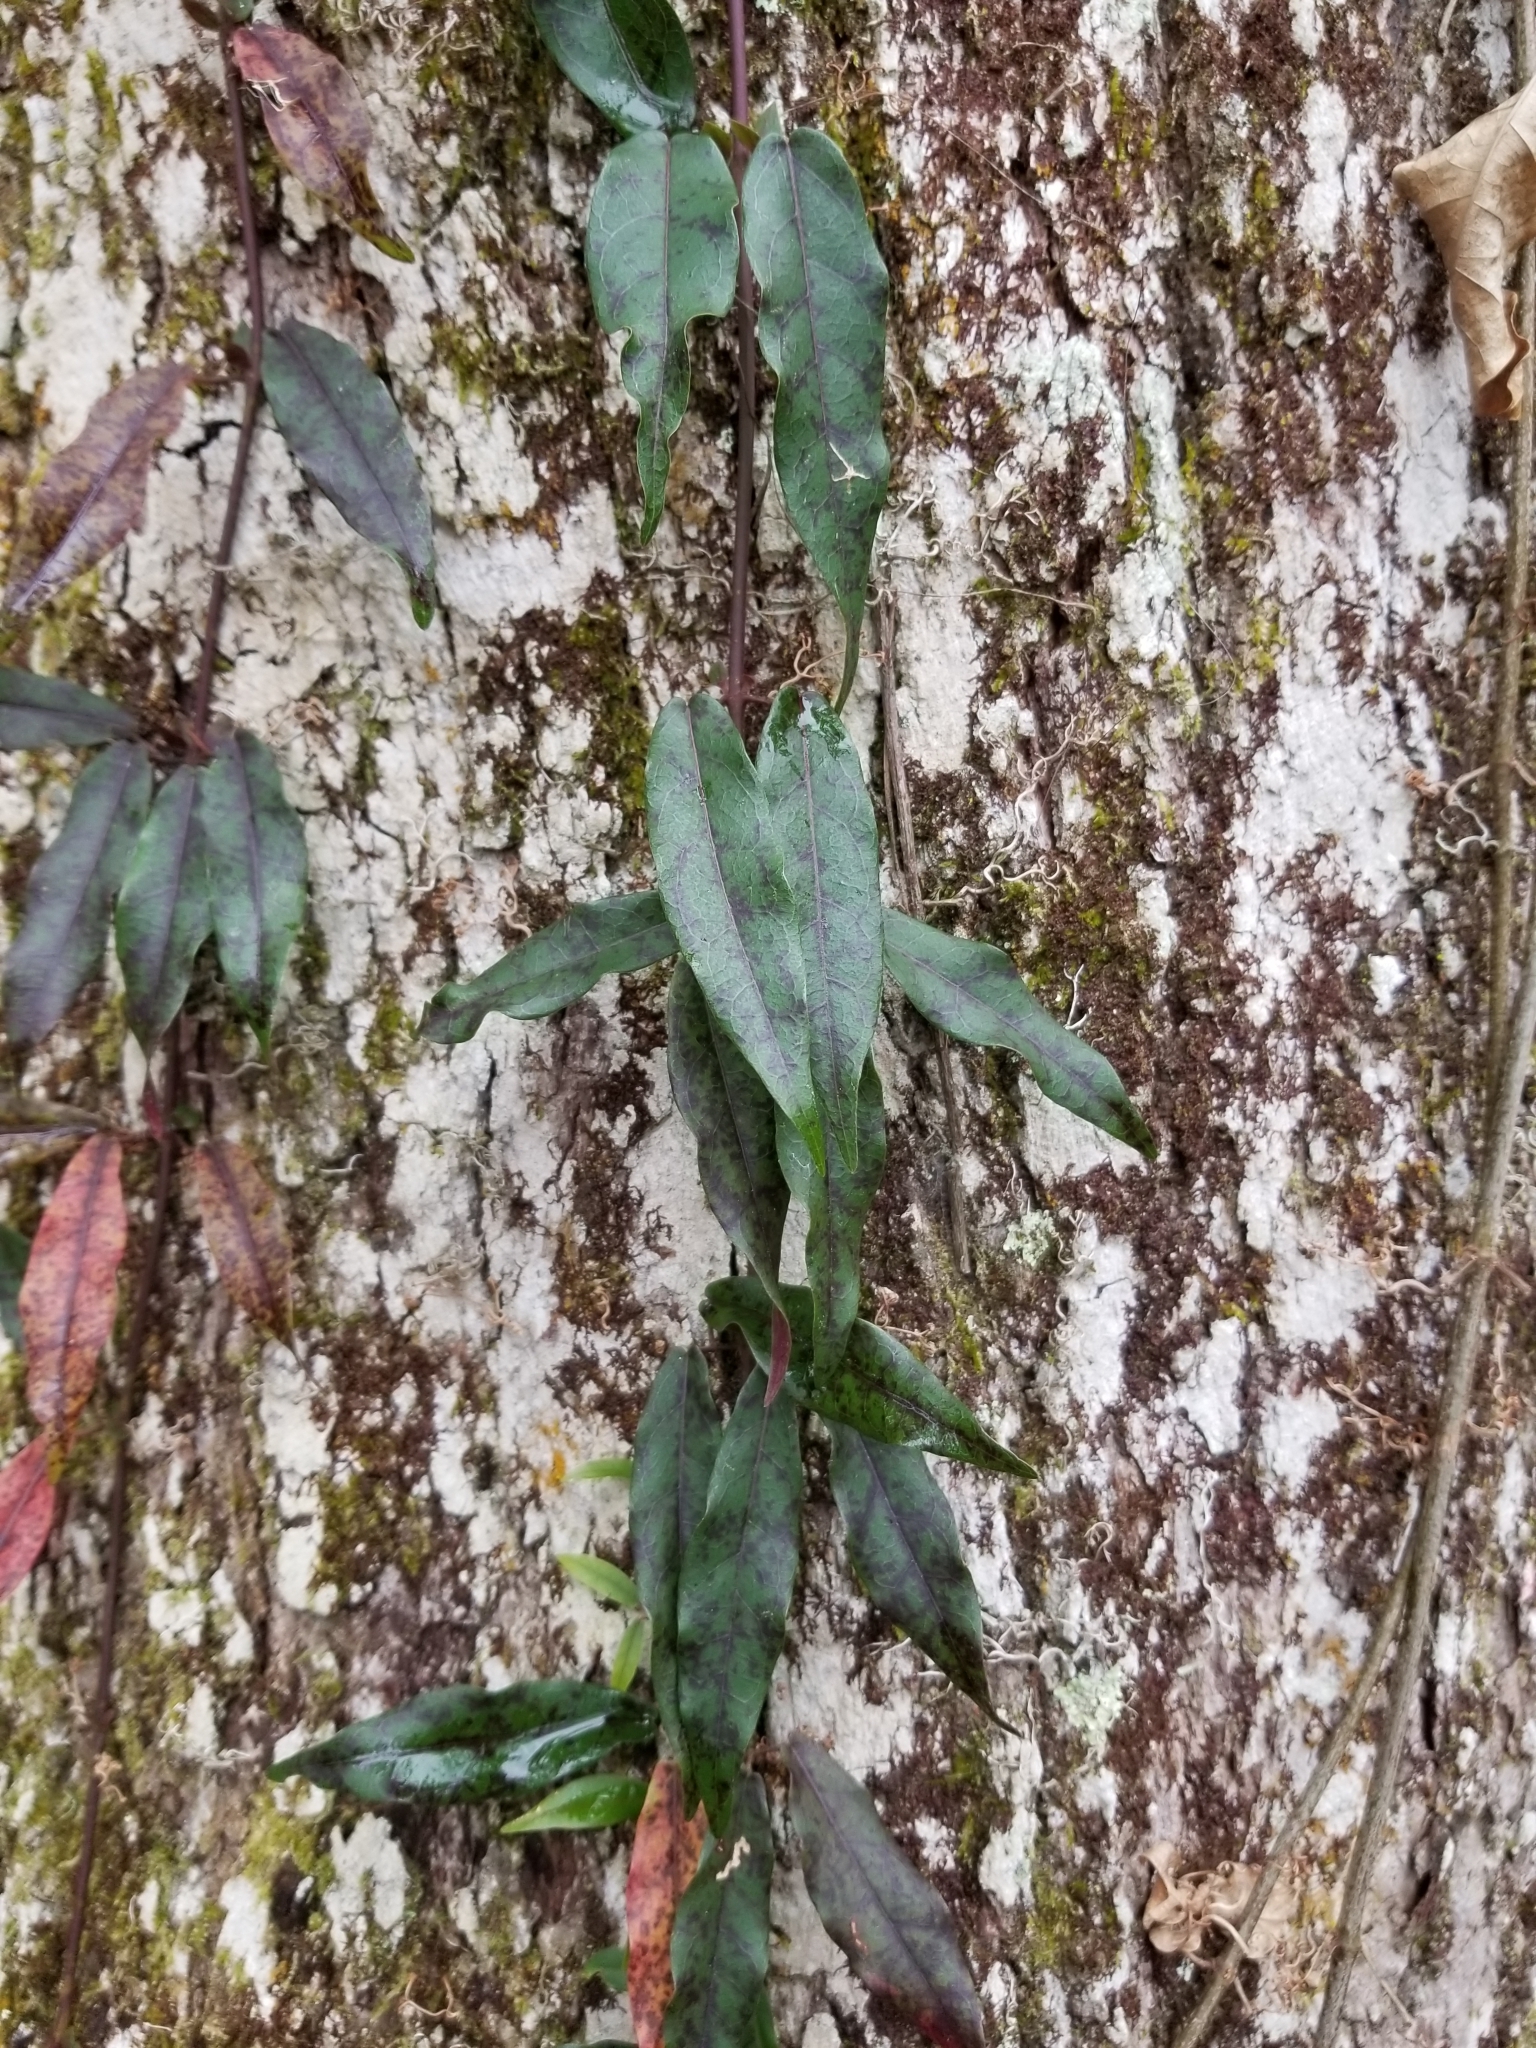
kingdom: Plantae
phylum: Tracheophyta
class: Magnoliopsida
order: Lamiales
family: Bignoniaceae
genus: Bignonia
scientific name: Bignonia capreolata
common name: Crossvine
